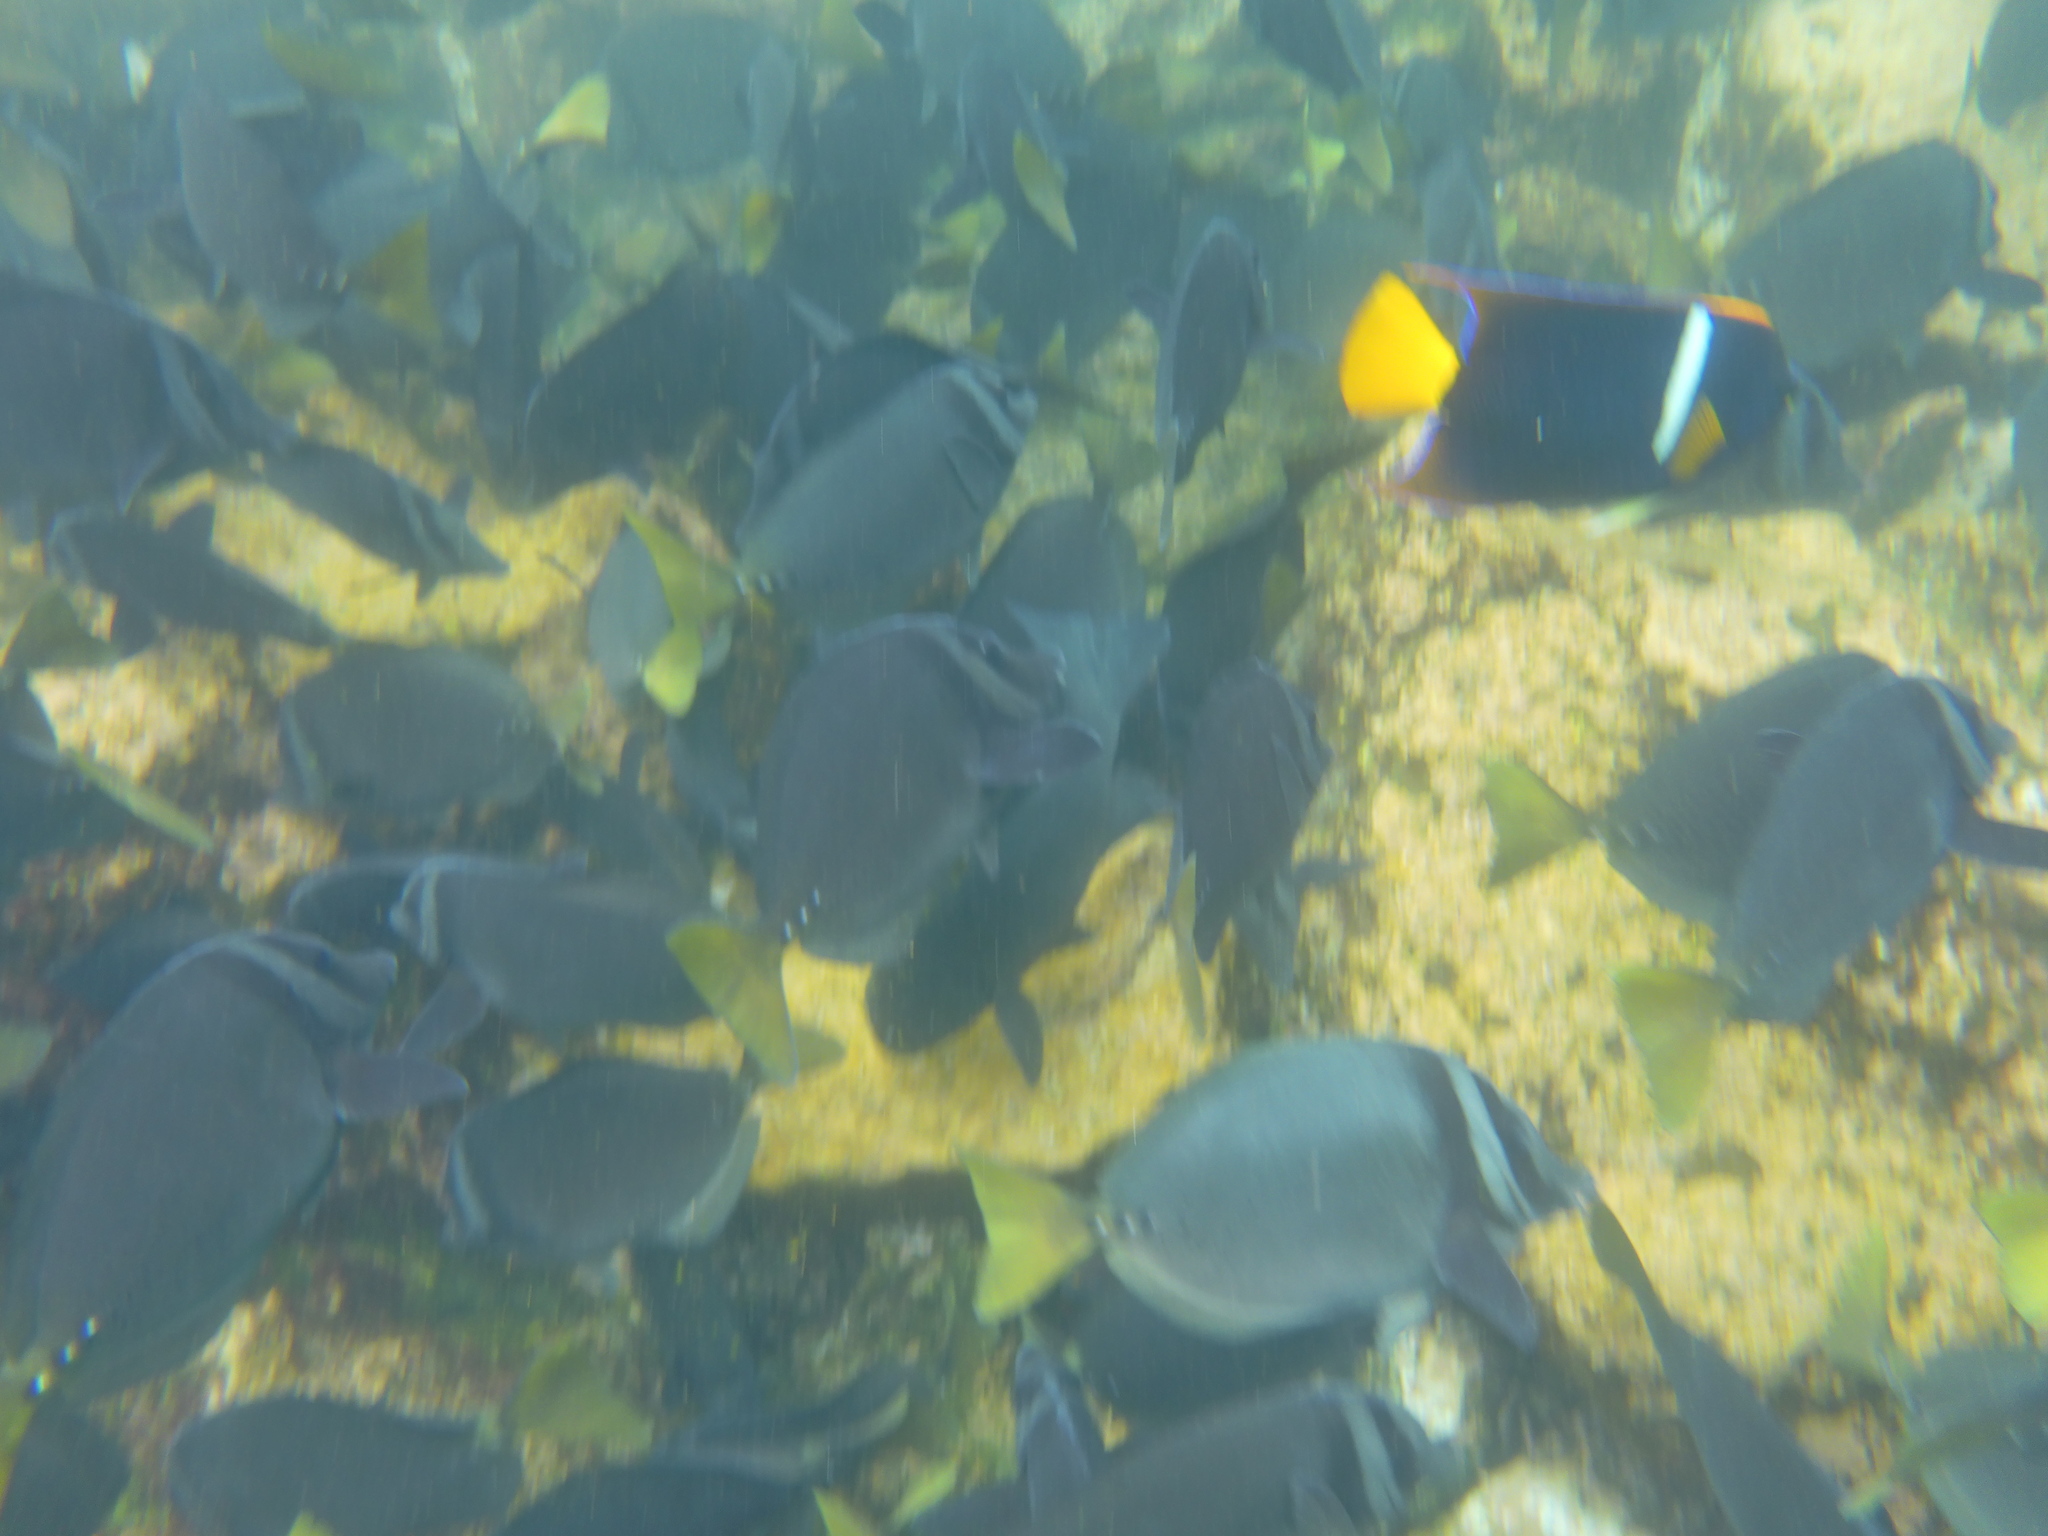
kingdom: Animalia
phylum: Chordata
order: Perciformes
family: Pomacanthidae
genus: Holacanthus
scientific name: Holacanthus passer
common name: King angelfish
